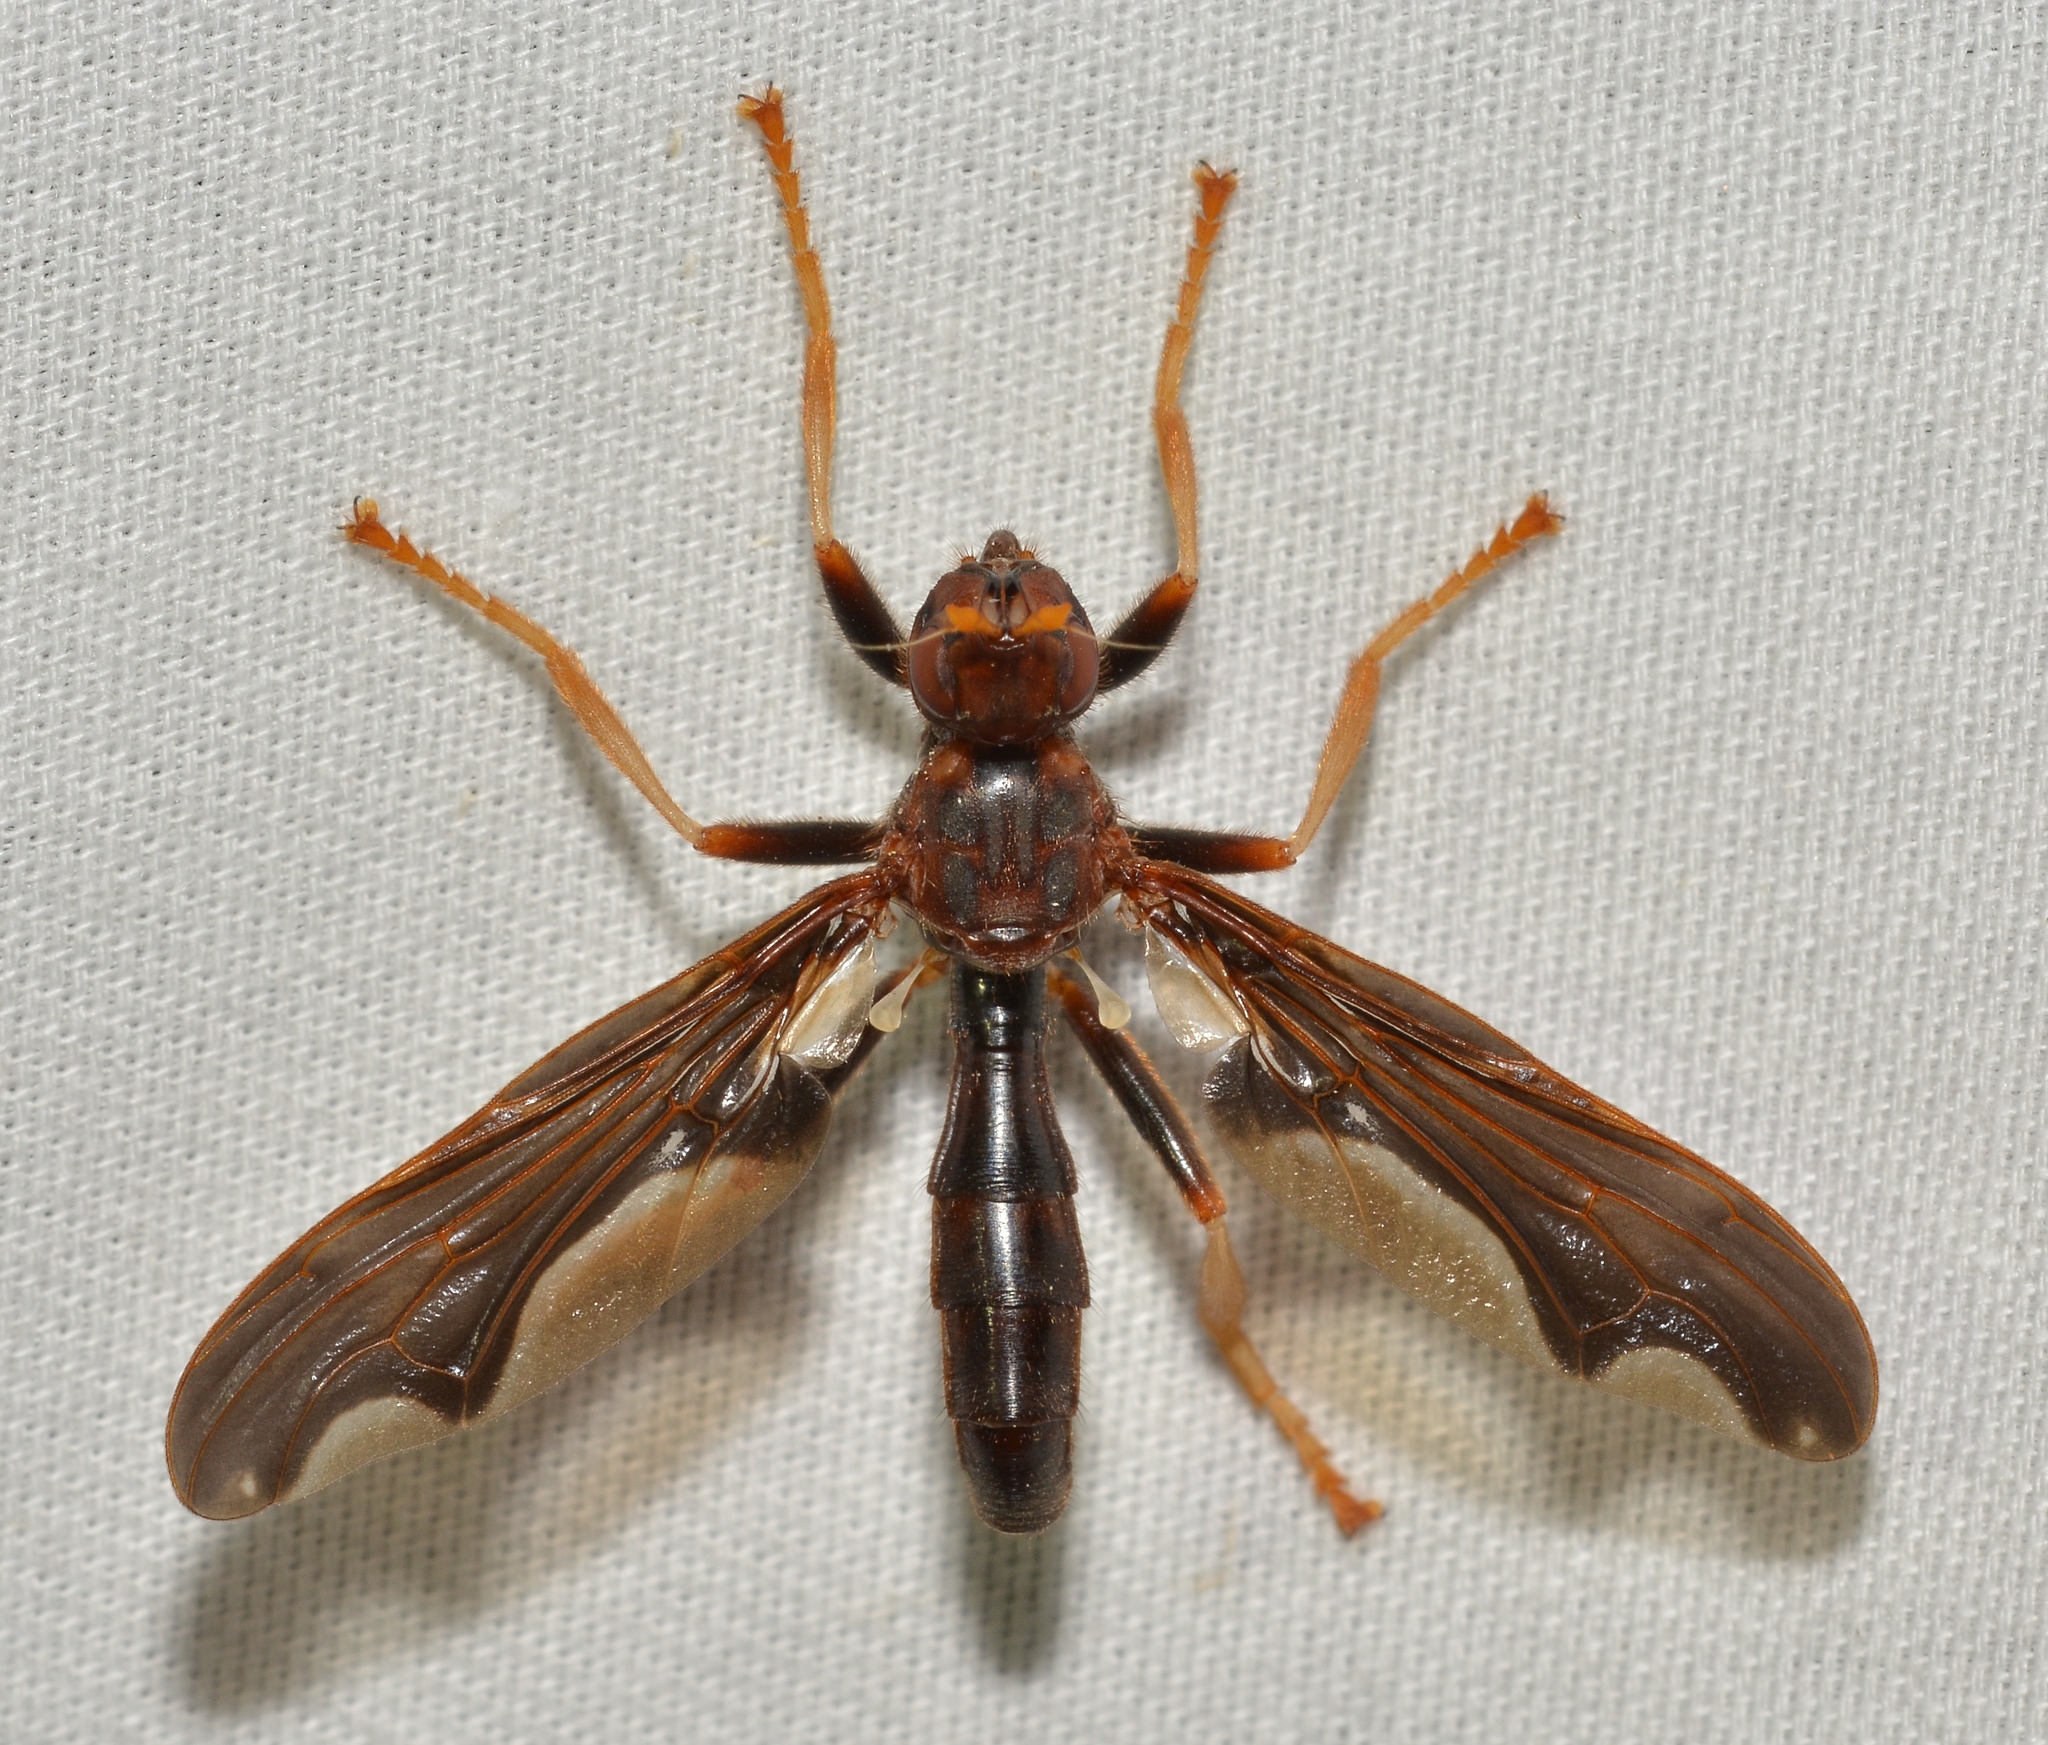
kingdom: Animalia
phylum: Arthropoda
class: Insecta
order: Diptera
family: Pyrgotidae
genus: Pyrgota
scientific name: Pyrgota undata
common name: Waved light fly
